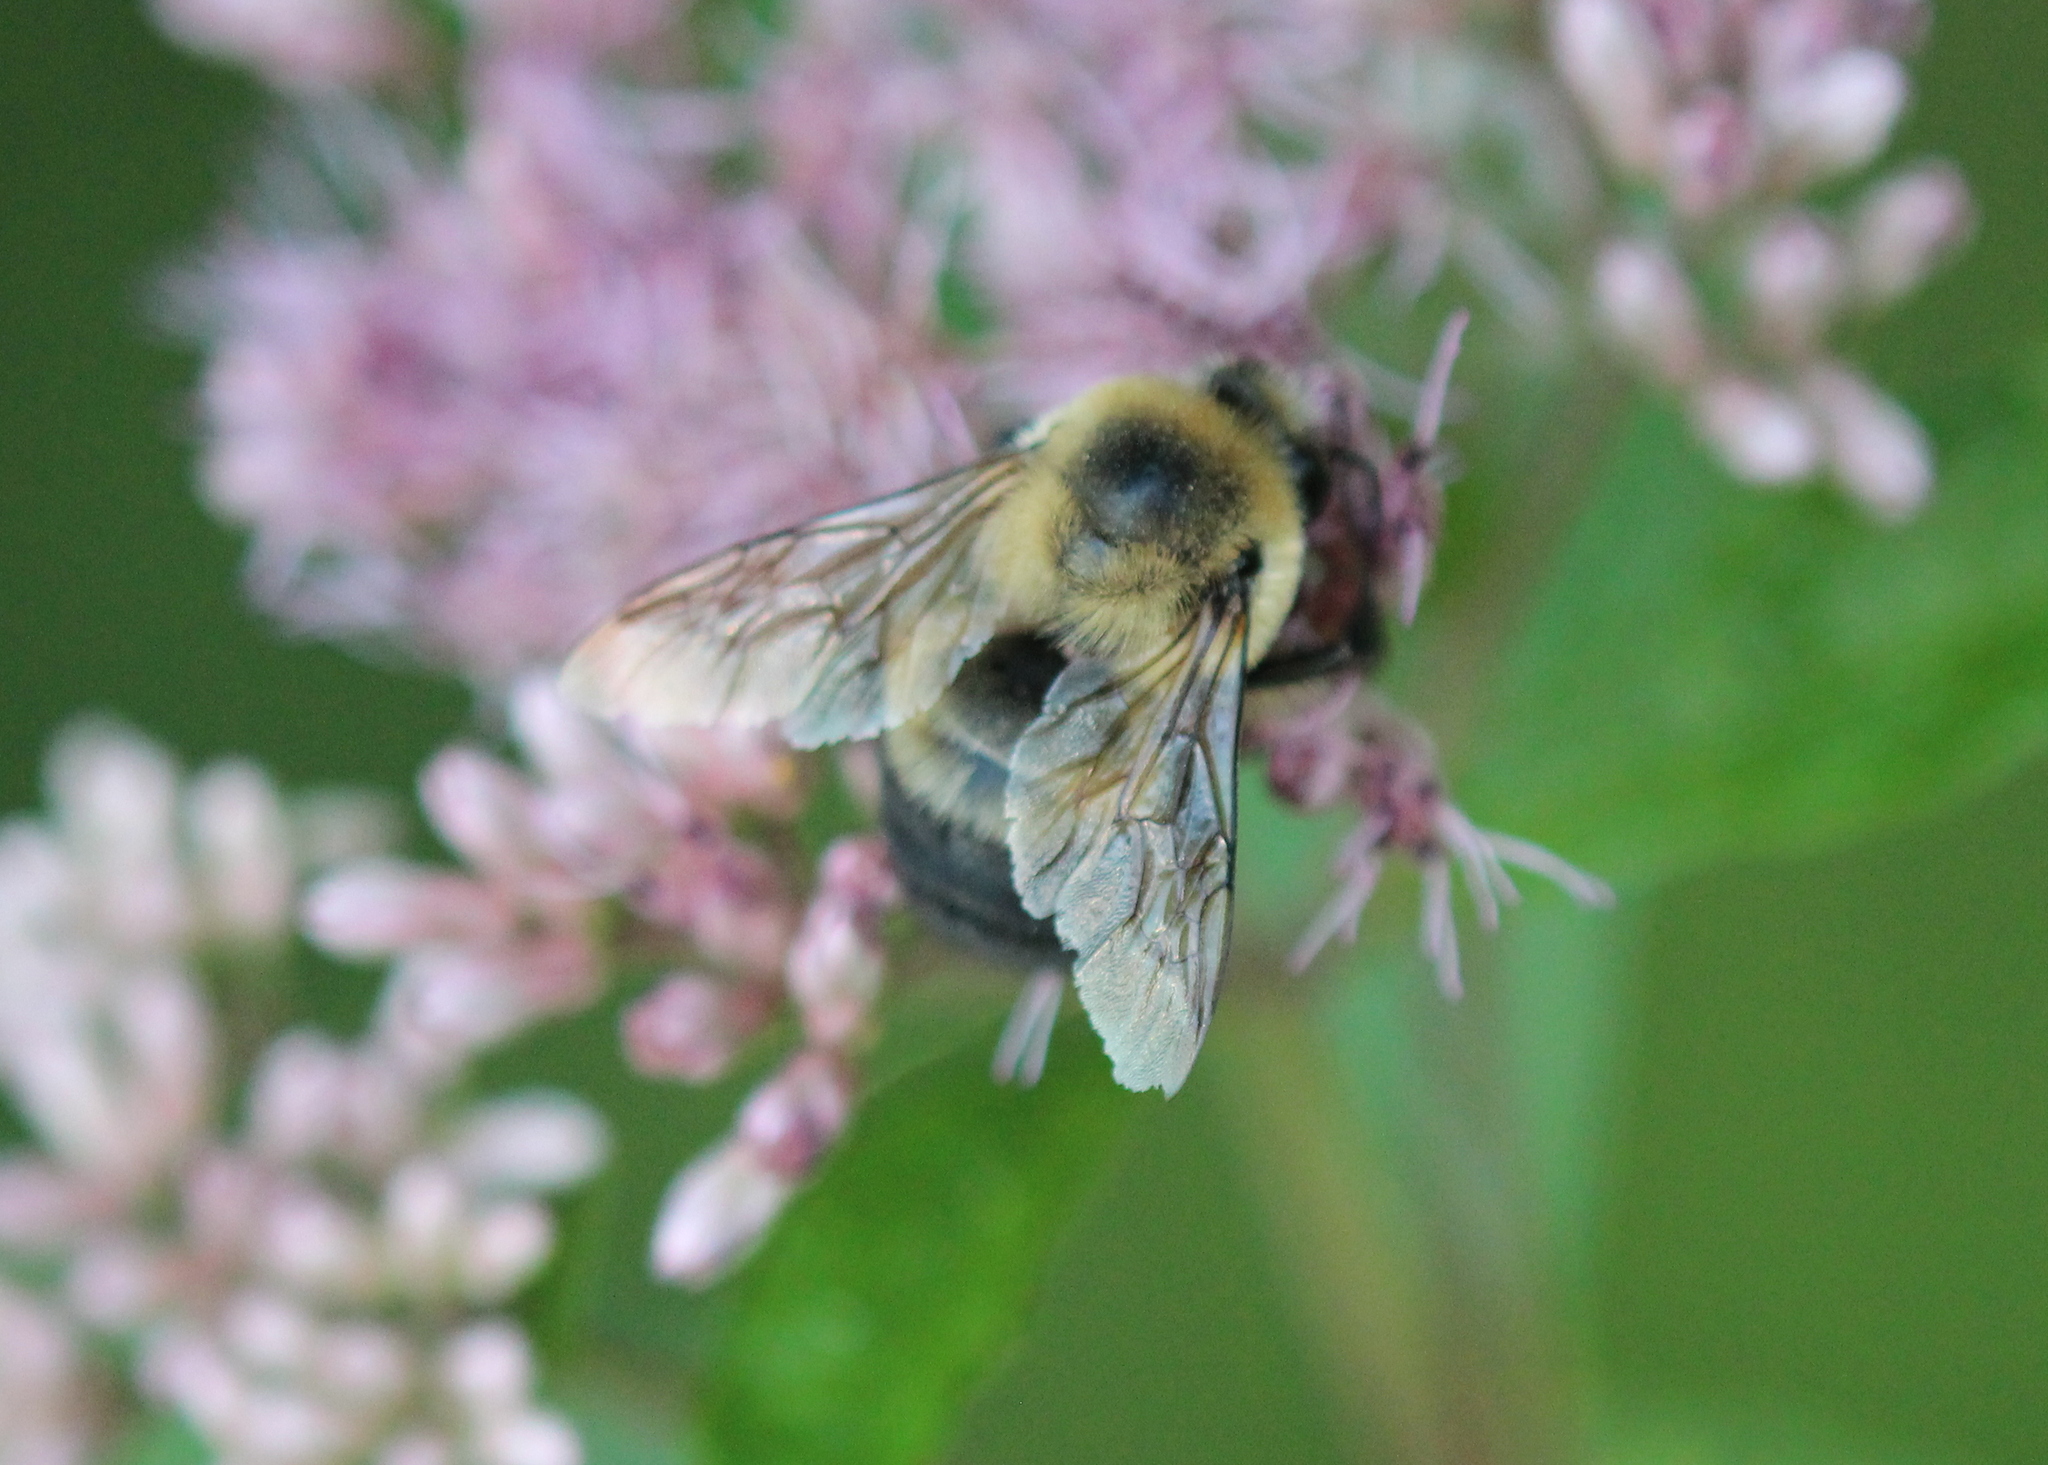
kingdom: Animalia
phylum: Arthropoda
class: Insecta
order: Hymenoptera
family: Apidae
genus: Bombus
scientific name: Bombus griseocollis
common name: Brown-belted bumble bee
